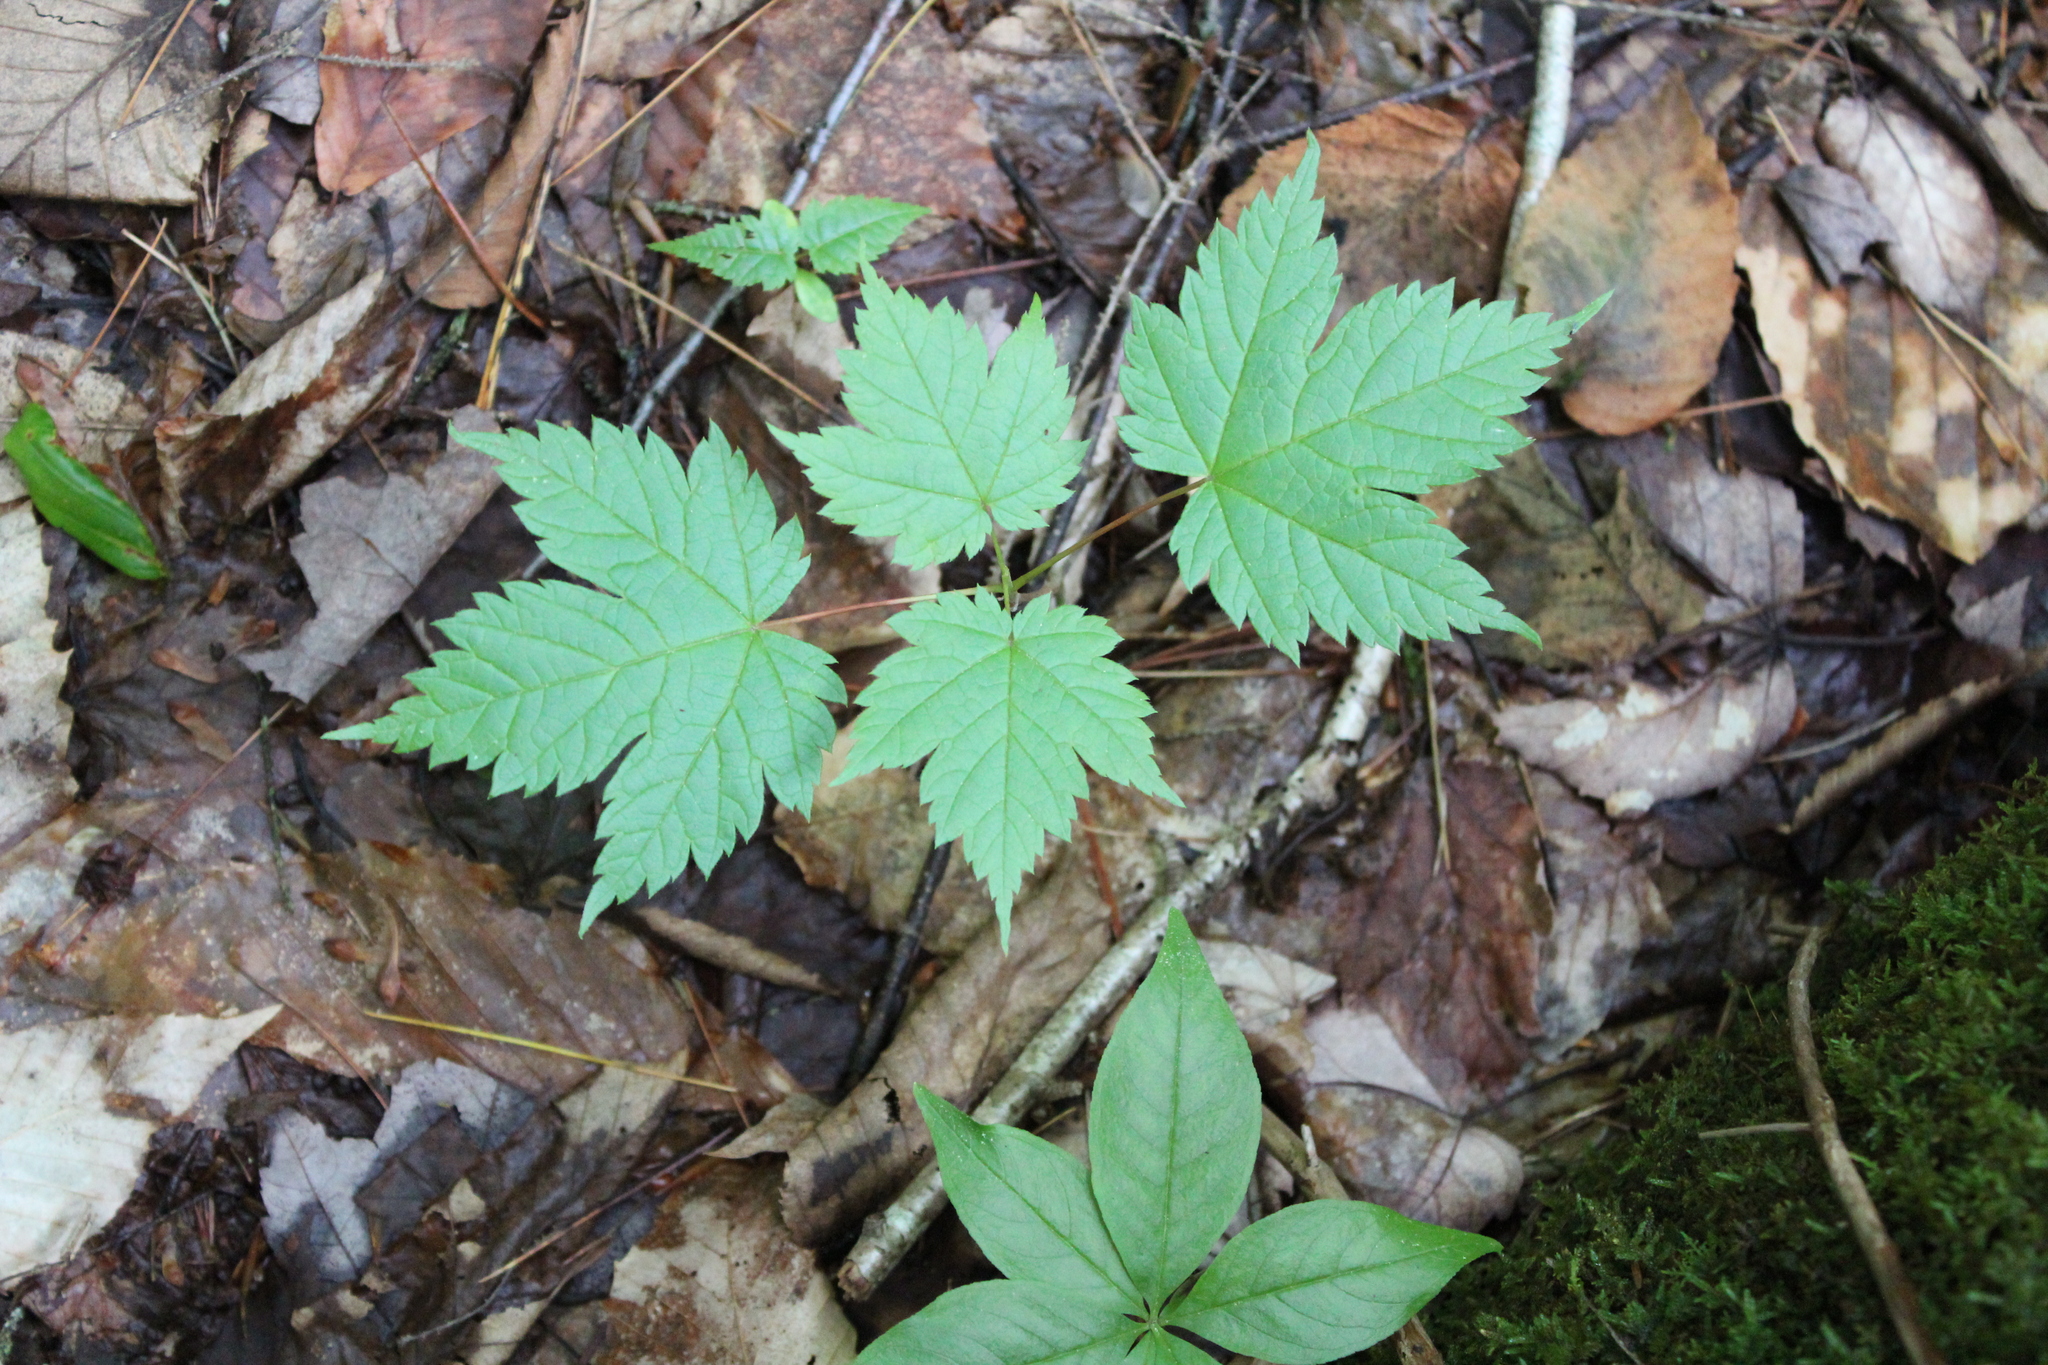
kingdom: Plantae
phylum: Tracheophyta
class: Magnoliopsida
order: Sapindales
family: Sapindaceae
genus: Acer
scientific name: Acer spicatum
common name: Mountain maple
